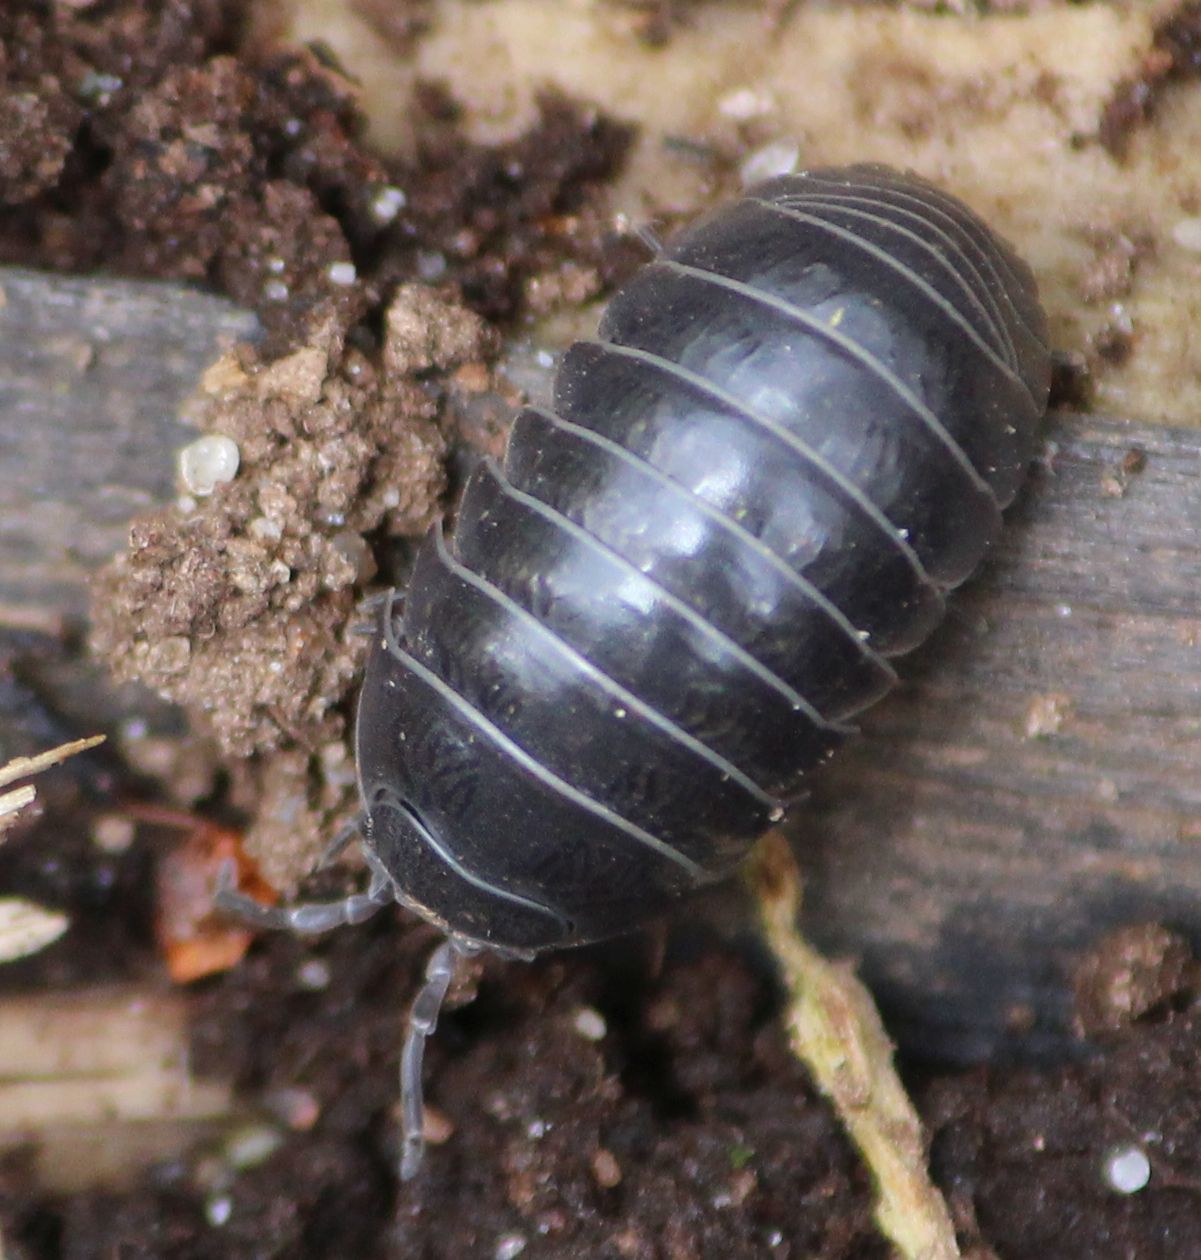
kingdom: Animalia
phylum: Arthropoda
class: Malacostraca
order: Isopoda
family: Armadillidiidae
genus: Armadillidium
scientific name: Armadillidium vulgare
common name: Common pill woodlouse
